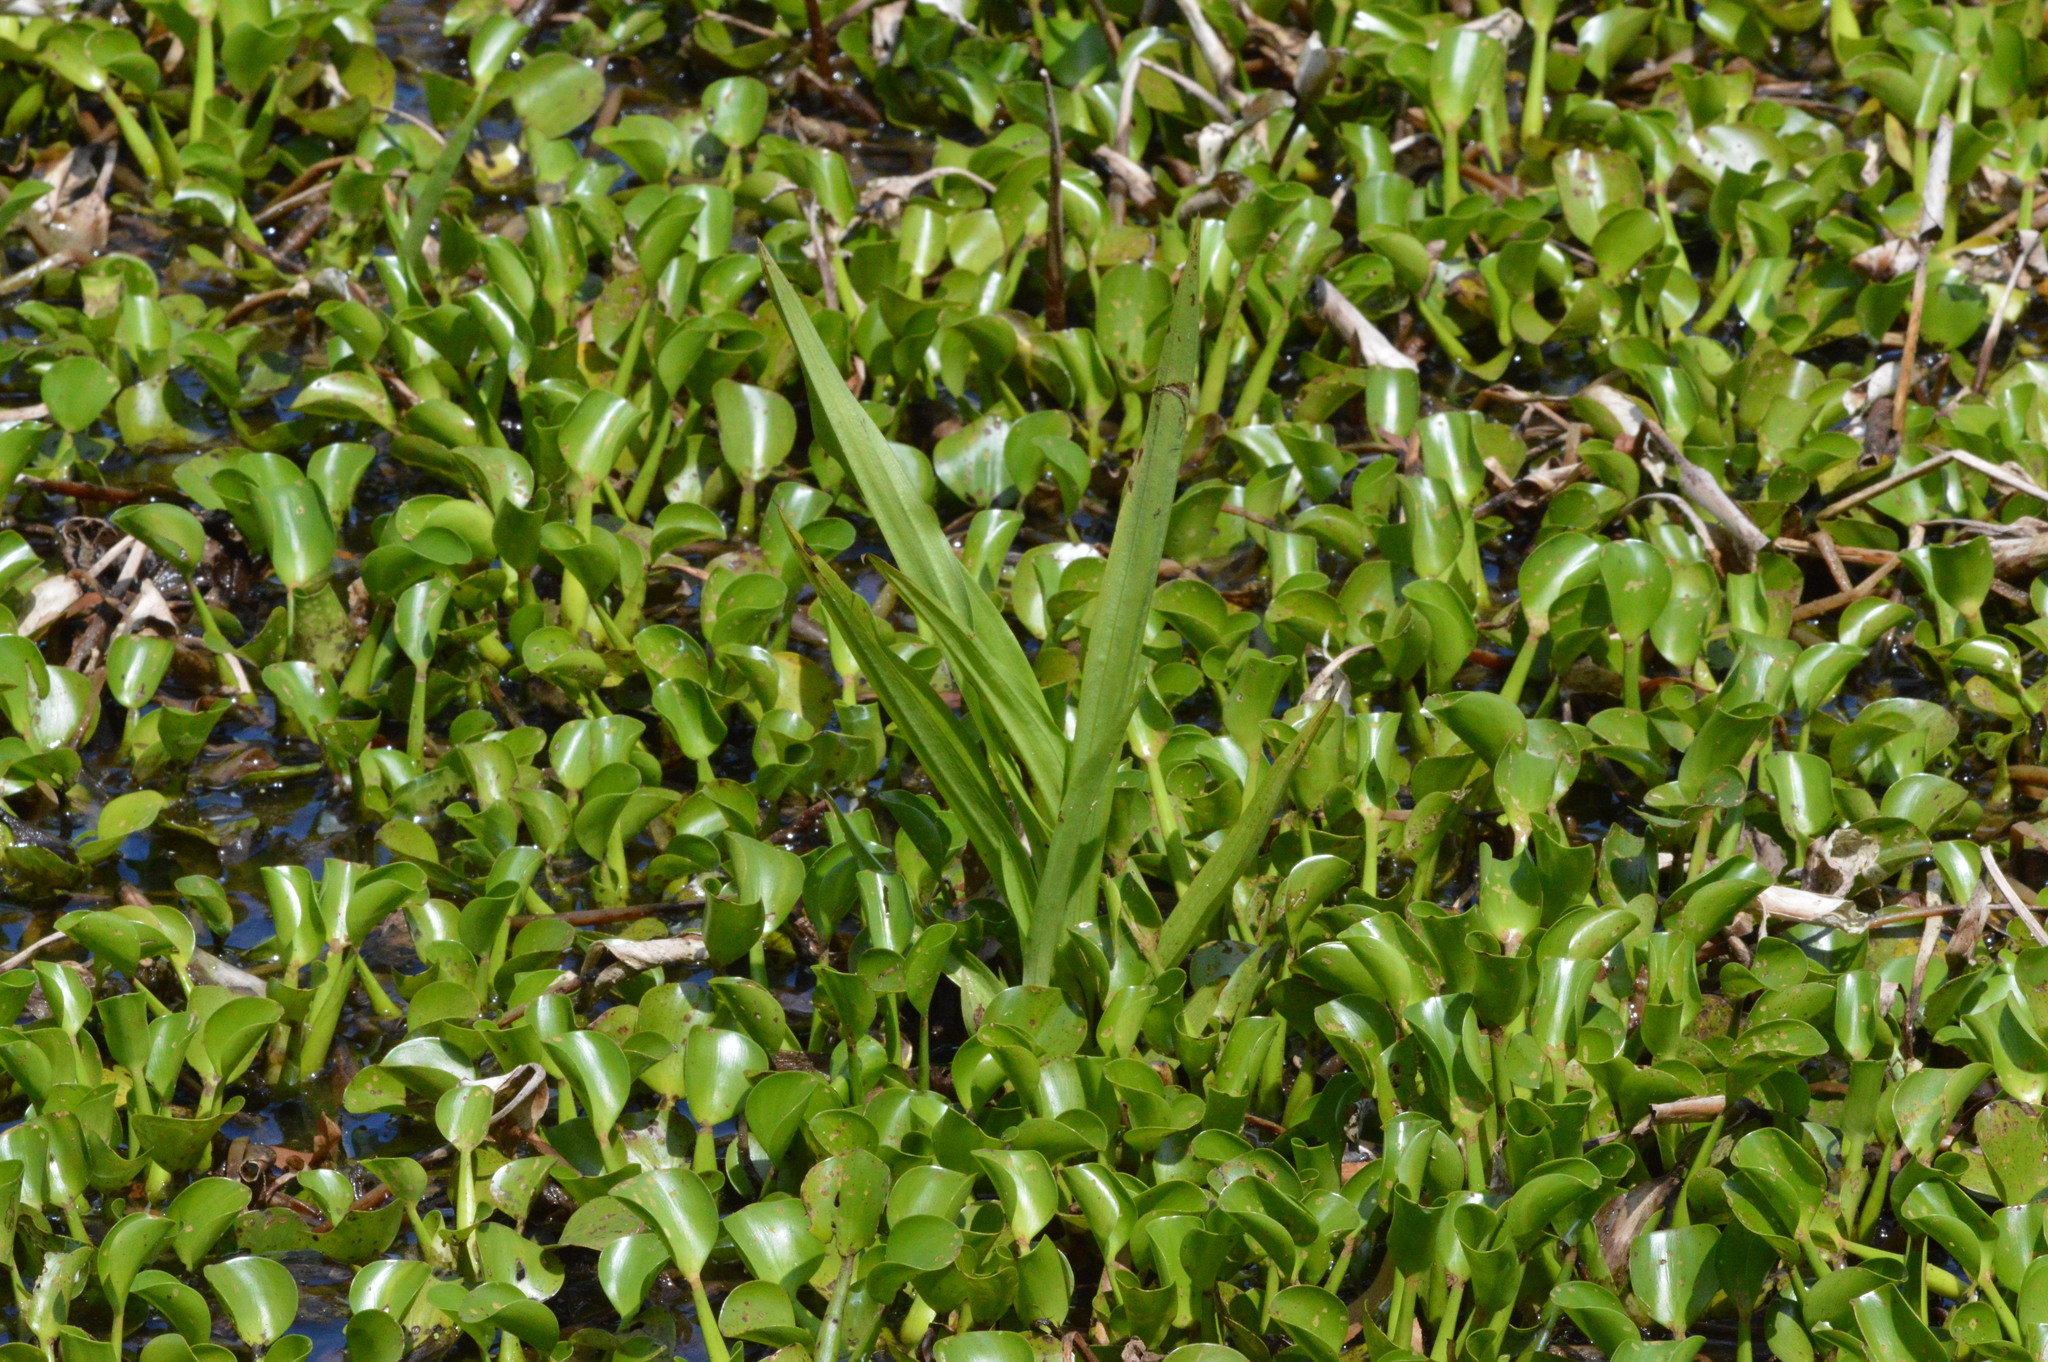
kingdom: Plantae
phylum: Tracheophyta
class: Liliopsida
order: Asparagales
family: Orchidaceae
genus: Habenaria
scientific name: Habenaria repens
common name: Water orchid
